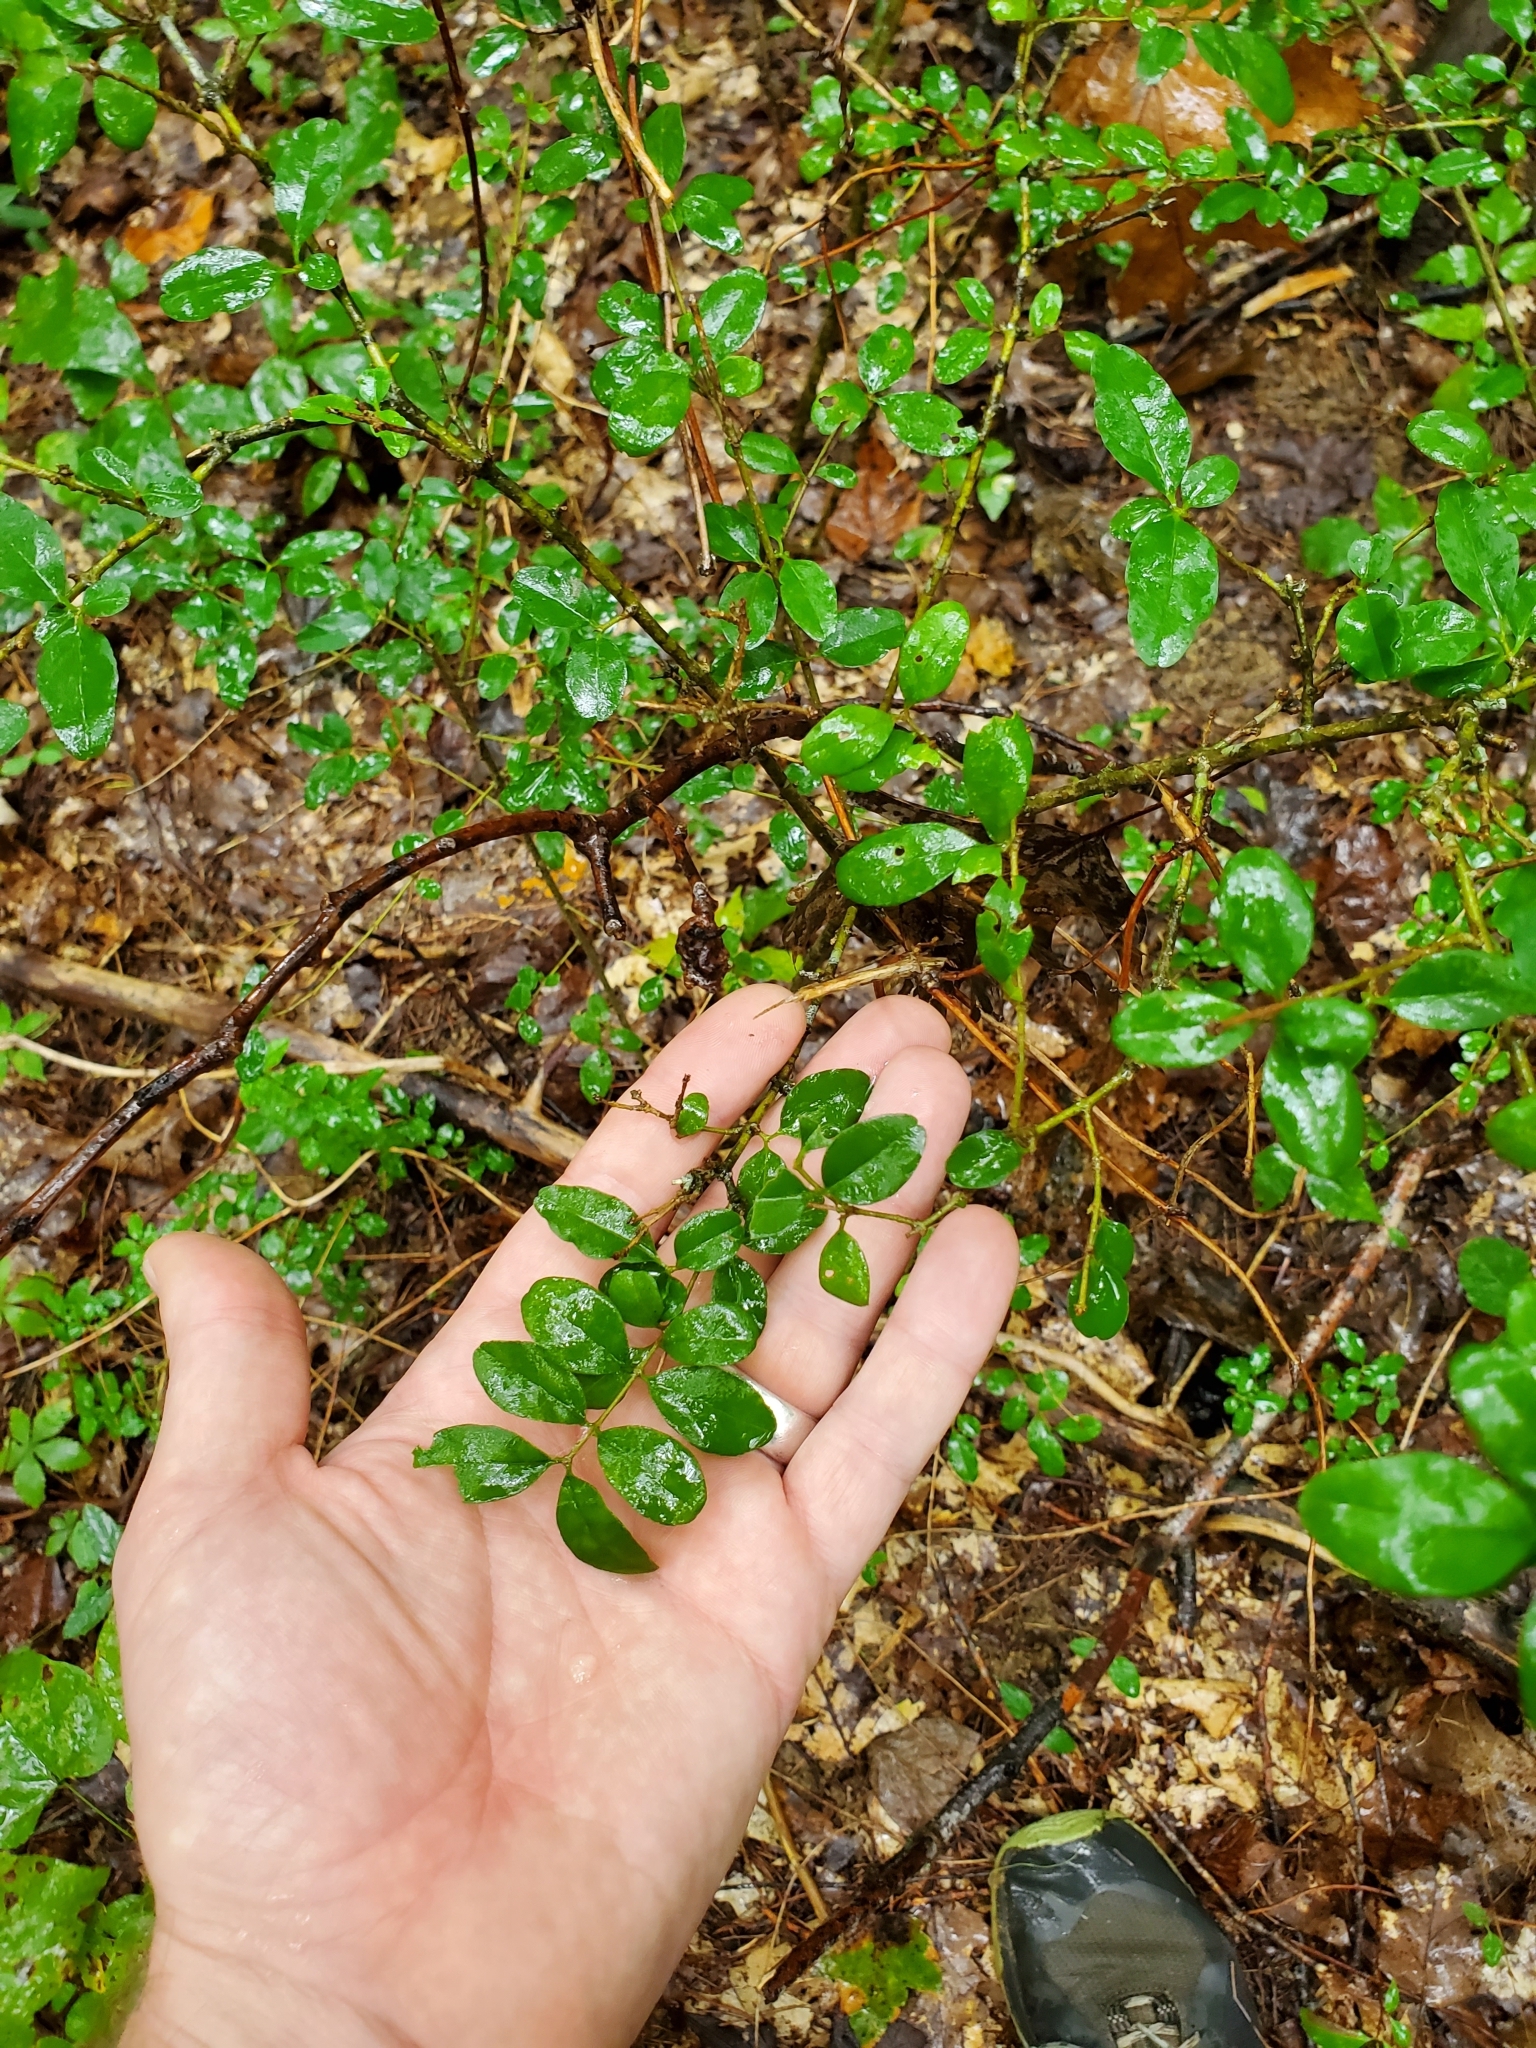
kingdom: Plantae
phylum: Tracheophyta
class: Magnoliopsida
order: Lamiales
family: Oleaceae
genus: Ligustrum
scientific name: Ligustrum sinense
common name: Chinese privet
